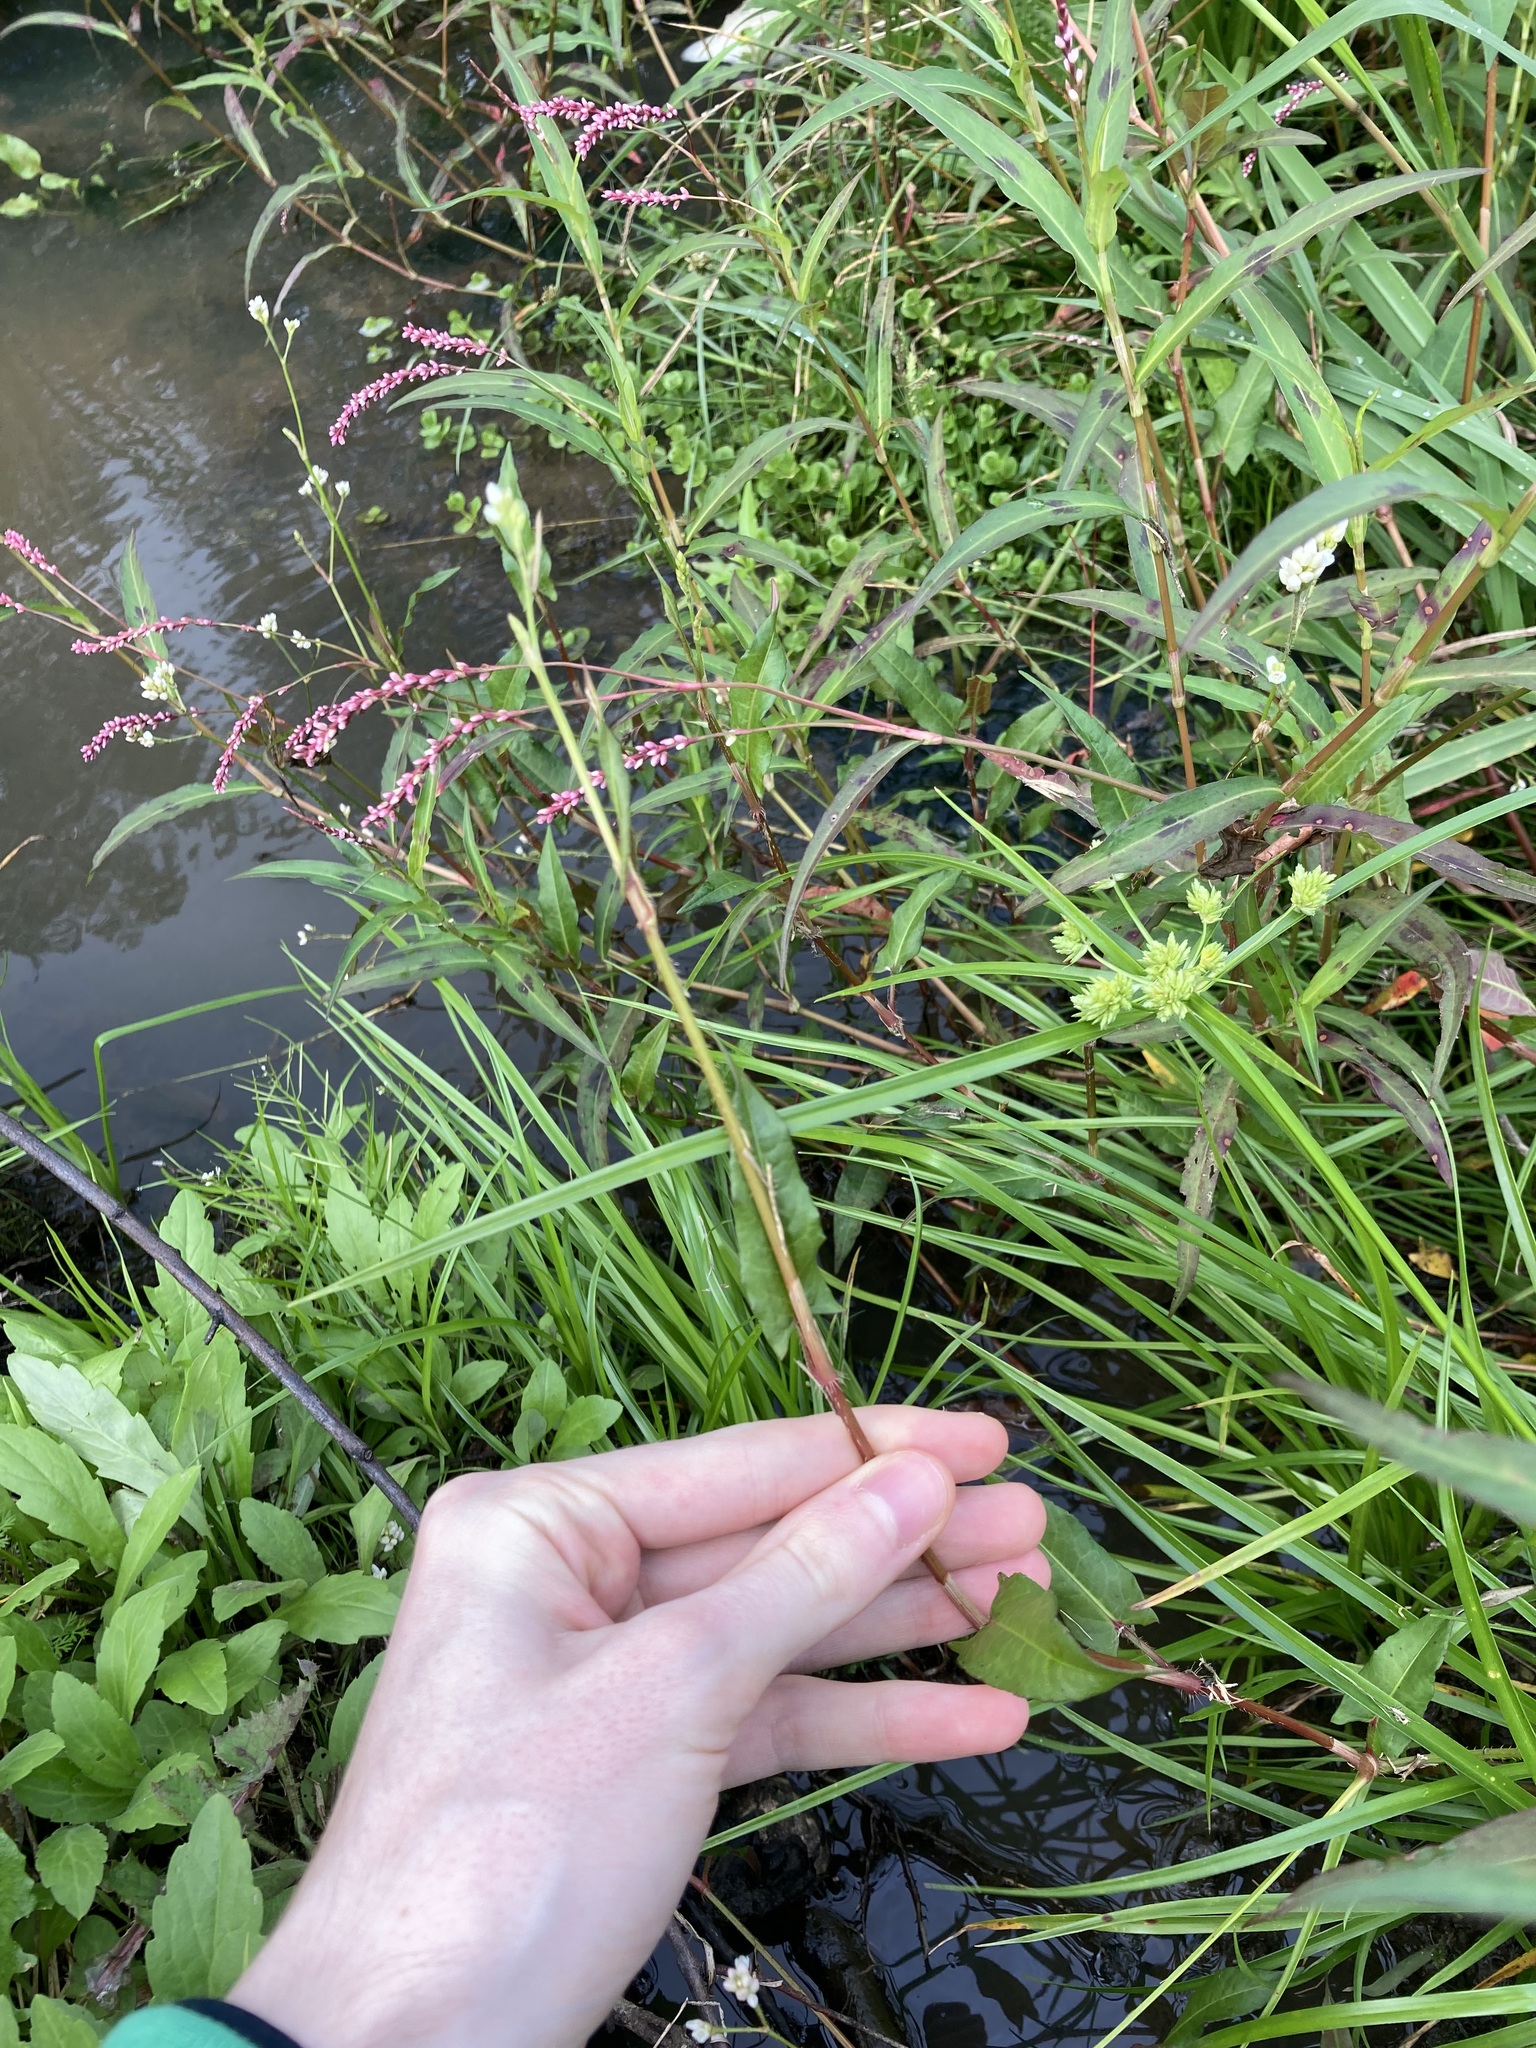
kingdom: Plantae
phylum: Tracheophyta
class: Magnoliopsida
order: Caryophyllales
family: Polygonaceae
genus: Persicaria
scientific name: Persicaria strigosa
